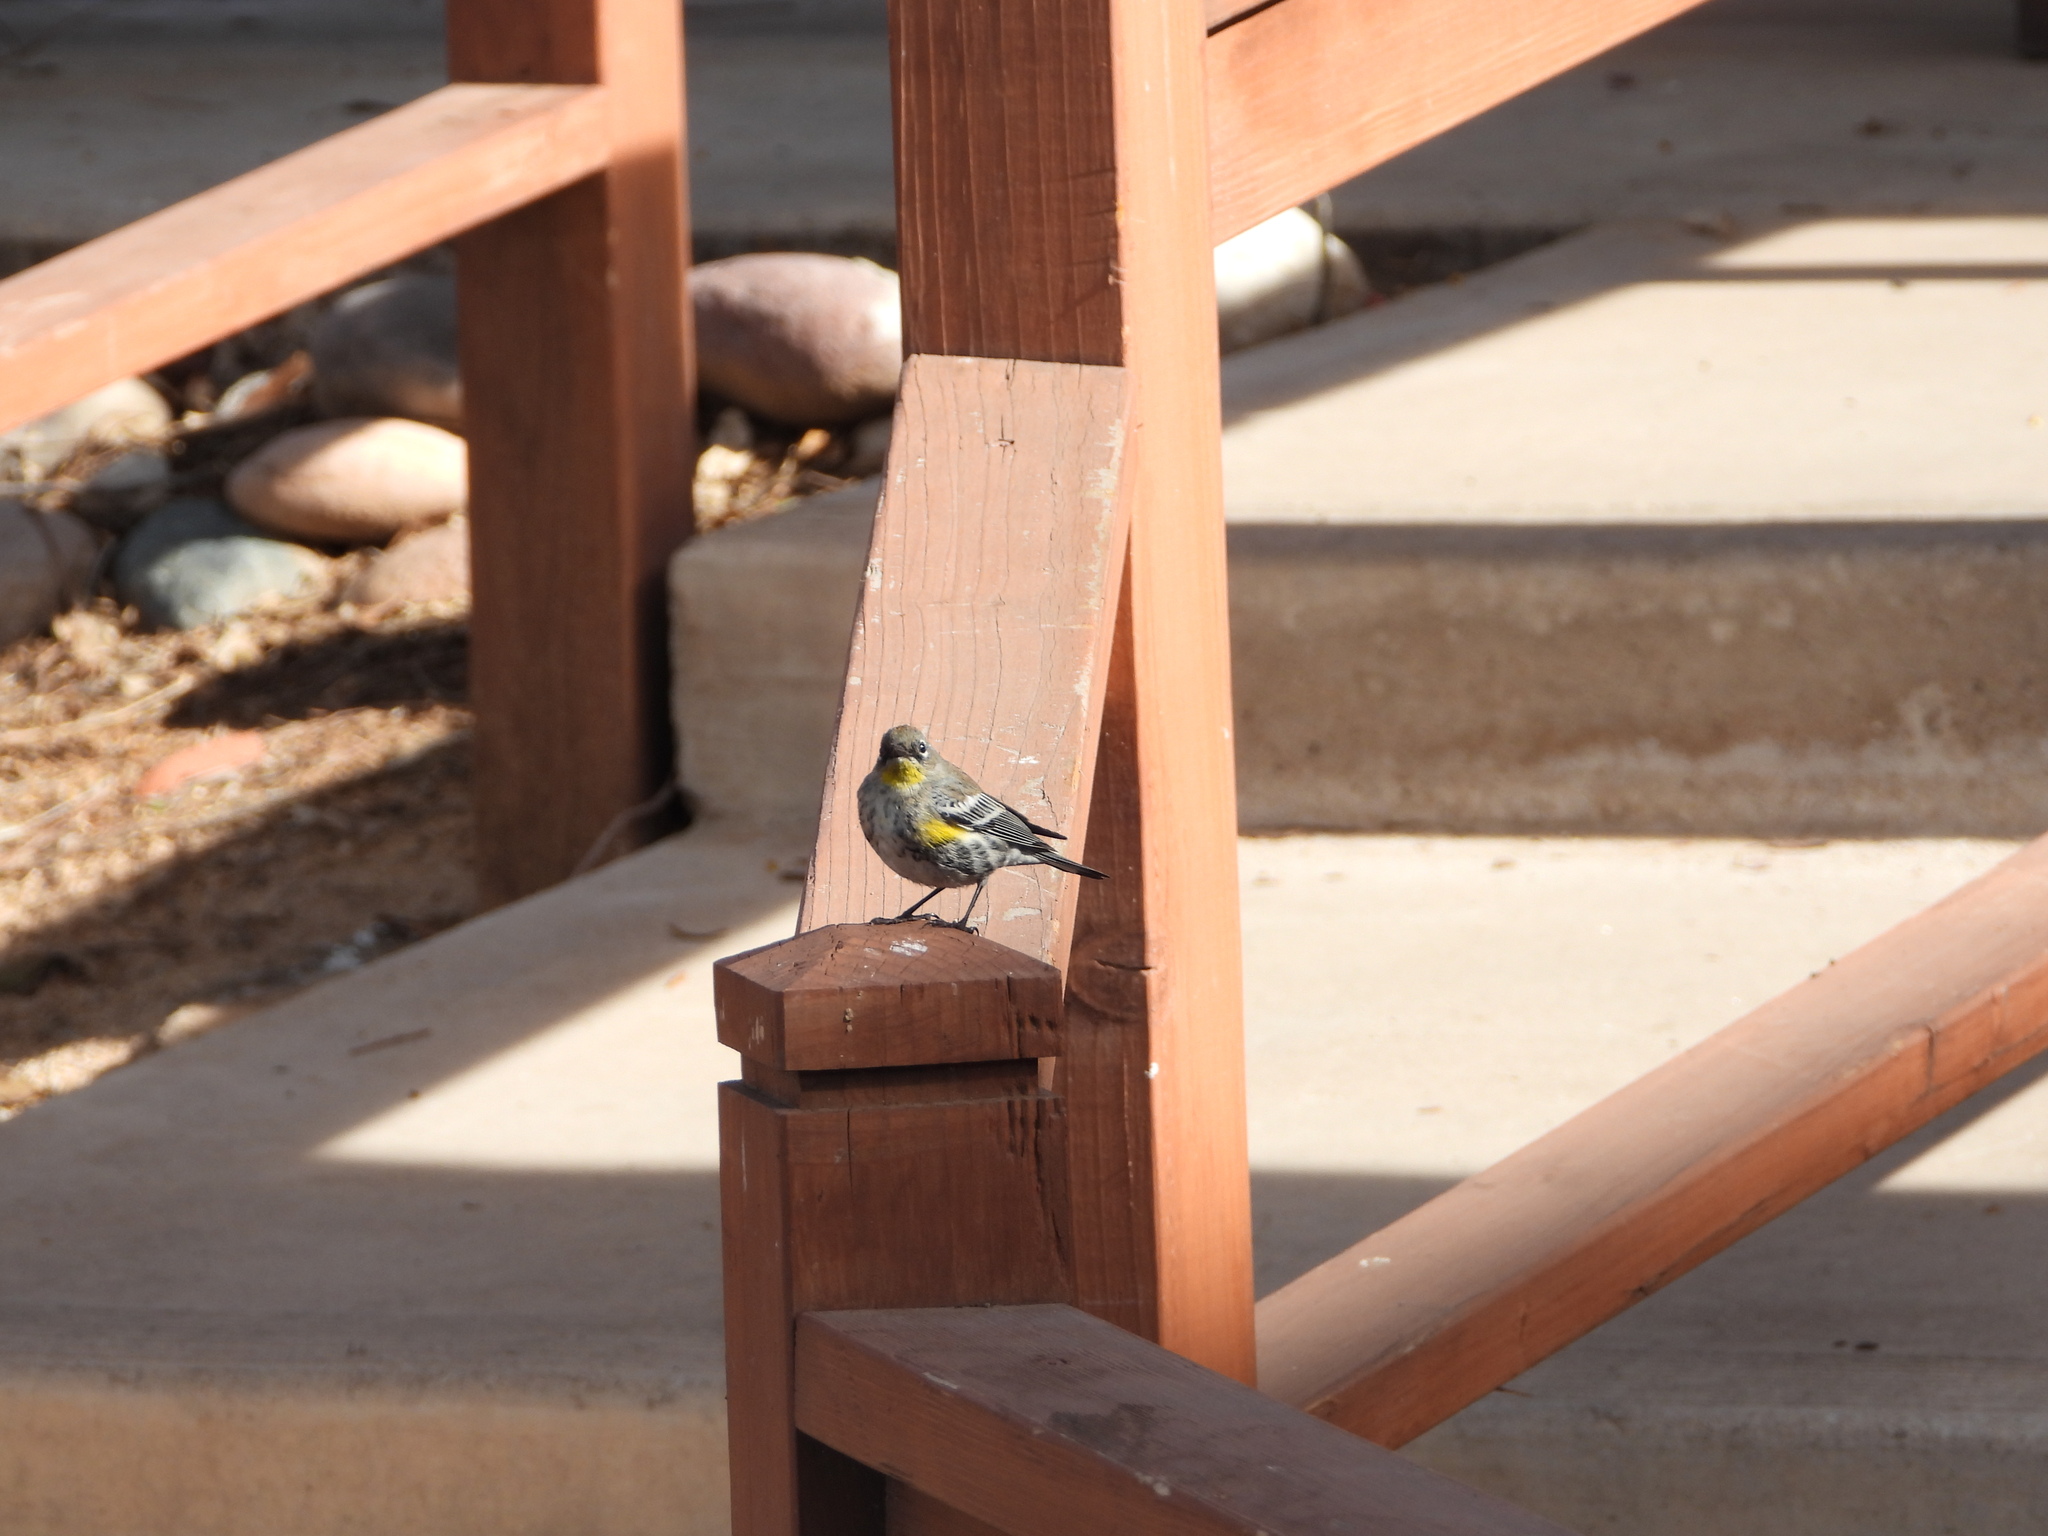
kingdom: Animalia
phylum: Chordata
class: Aves
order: Passeriformes
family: Parulidae
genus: Setophaga
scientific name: Setophaga coronata
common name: Myrtle warbler
